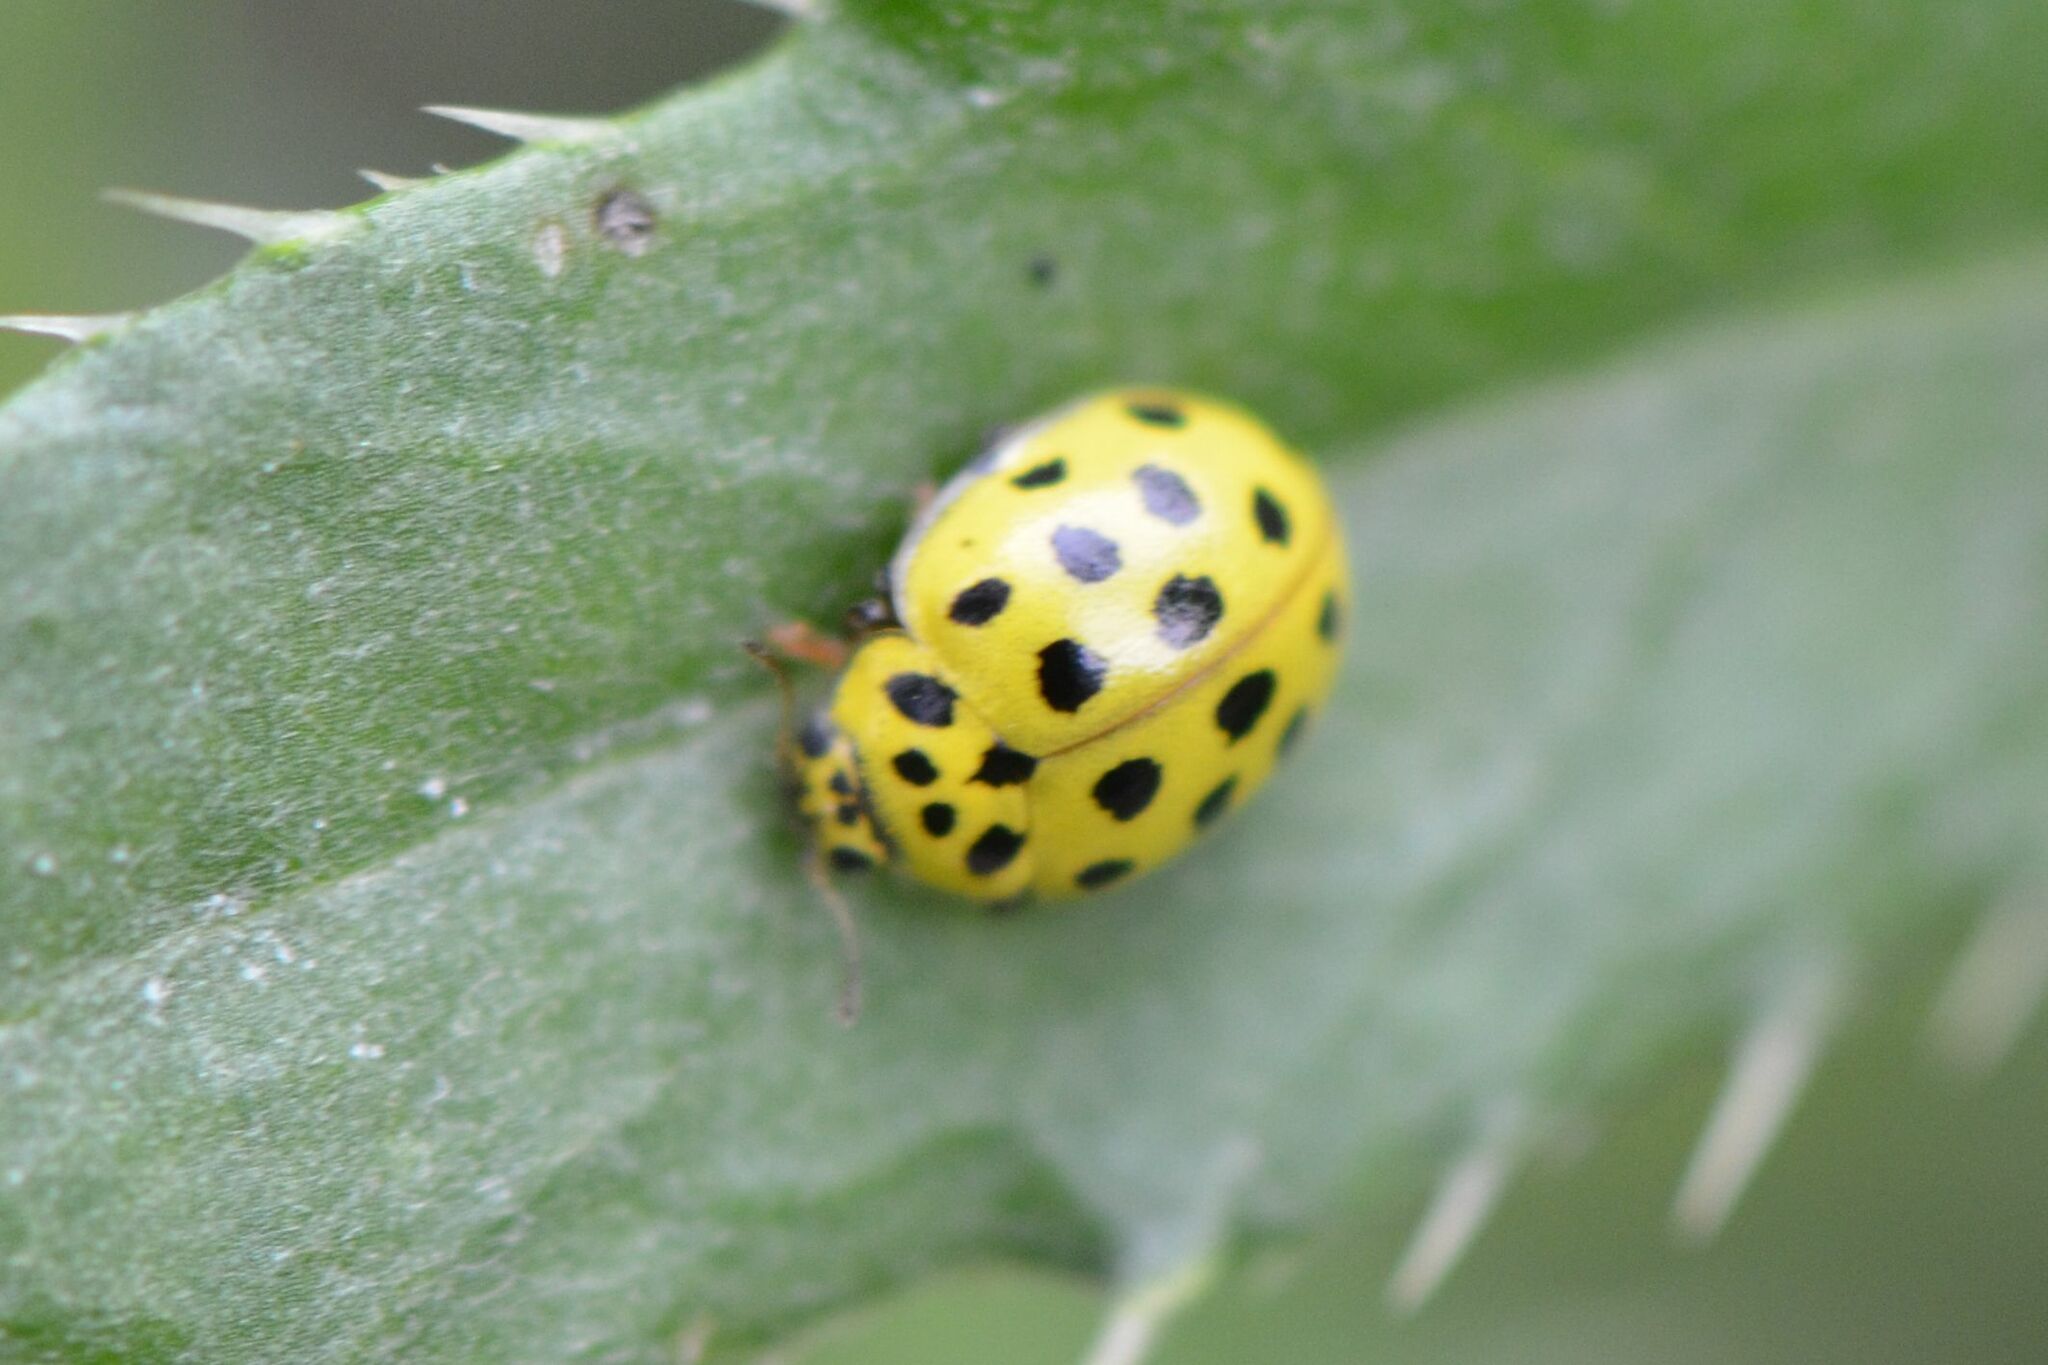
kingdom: Animalia
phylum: Arthropoda
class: Insecta
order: Coleoptera
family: Coccinellidae
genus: Psyllobora
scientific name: Psyllobora vigintiduopunctata
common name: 22-spot ladybird
